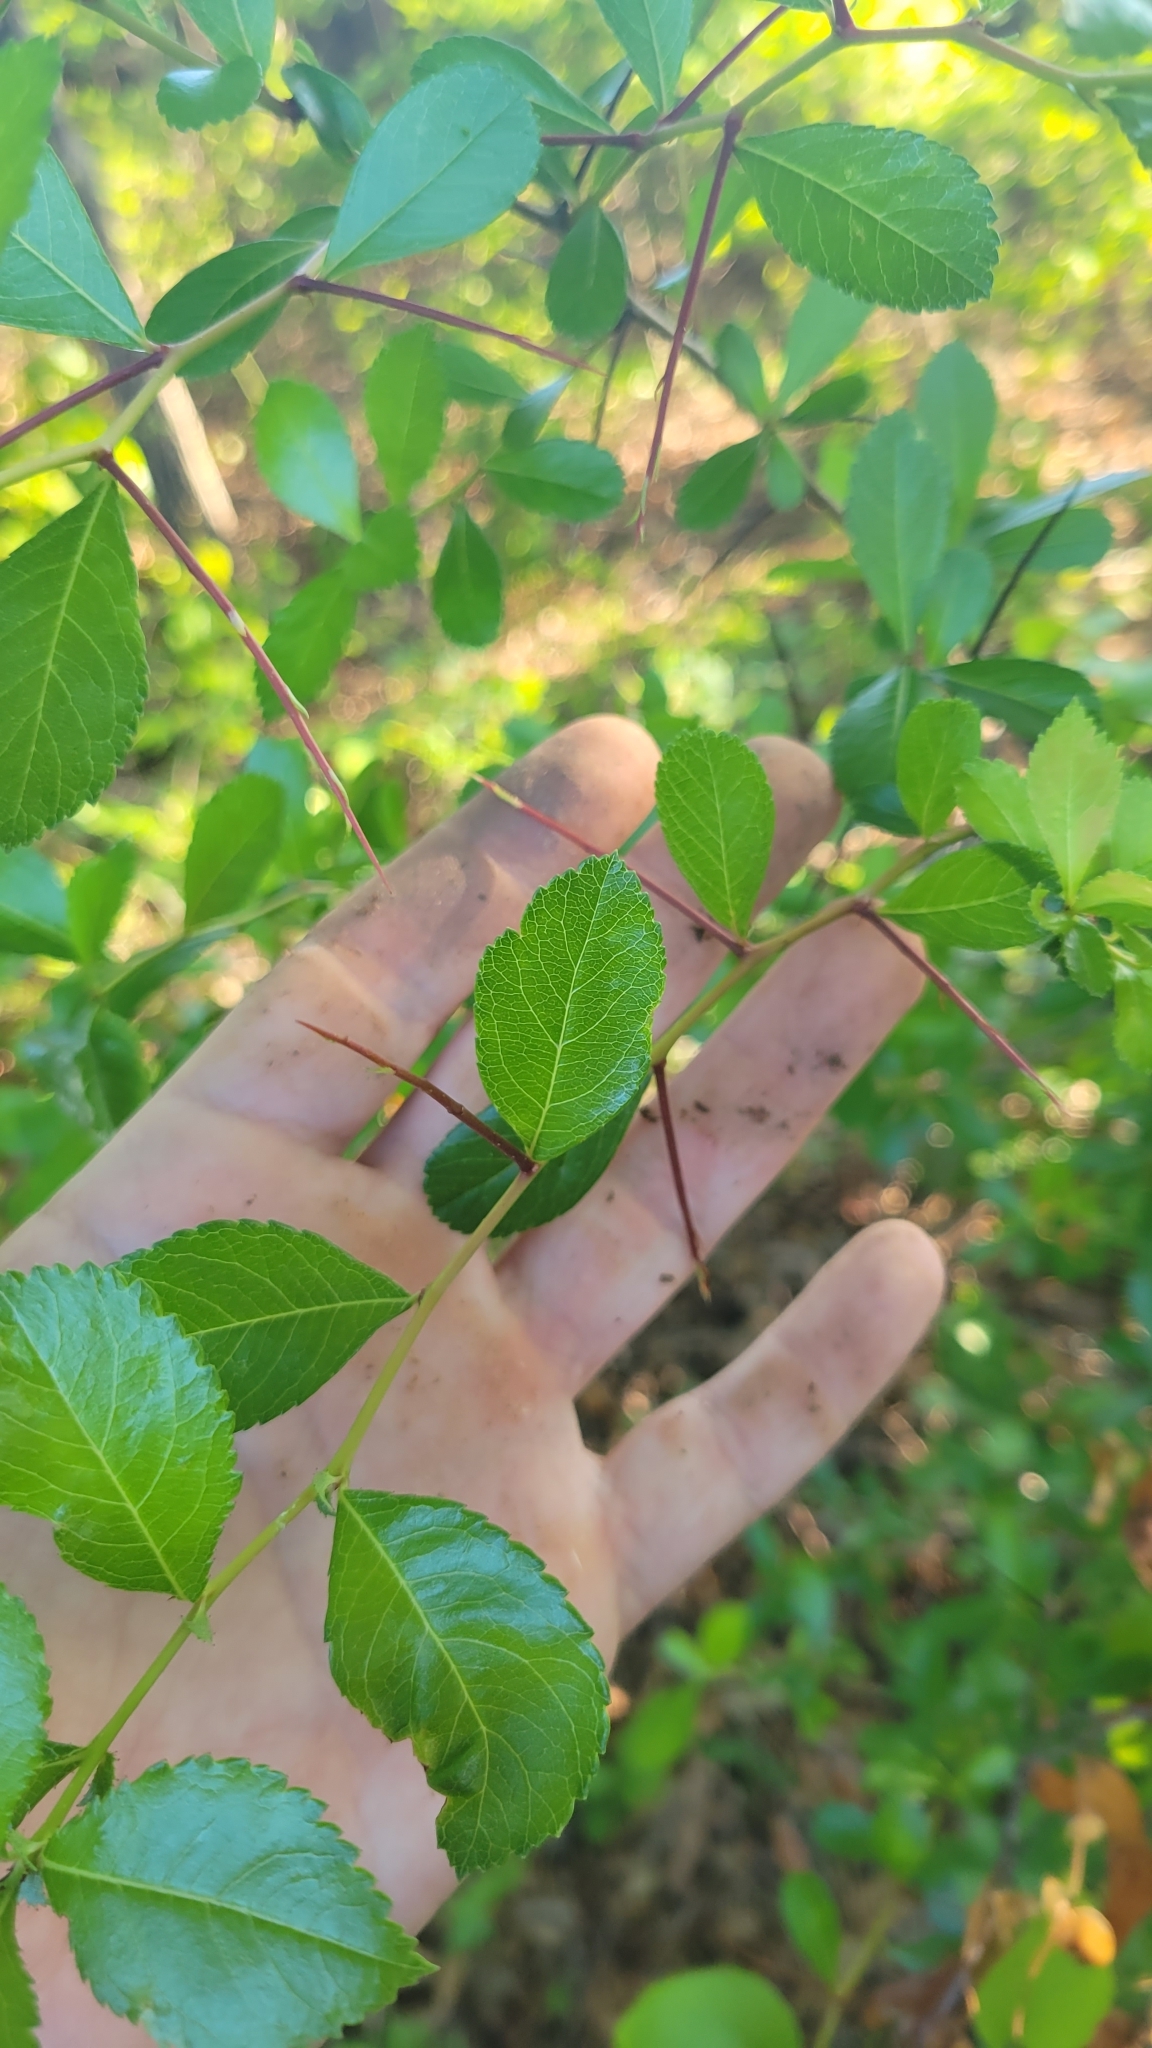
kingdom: Plantae
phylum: Tracheophyta
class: Magnoliopsida
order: Rosales
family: Rosaceae
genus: Crataegus
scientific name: Crataegus uniflora
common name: One-flower hawthorn
